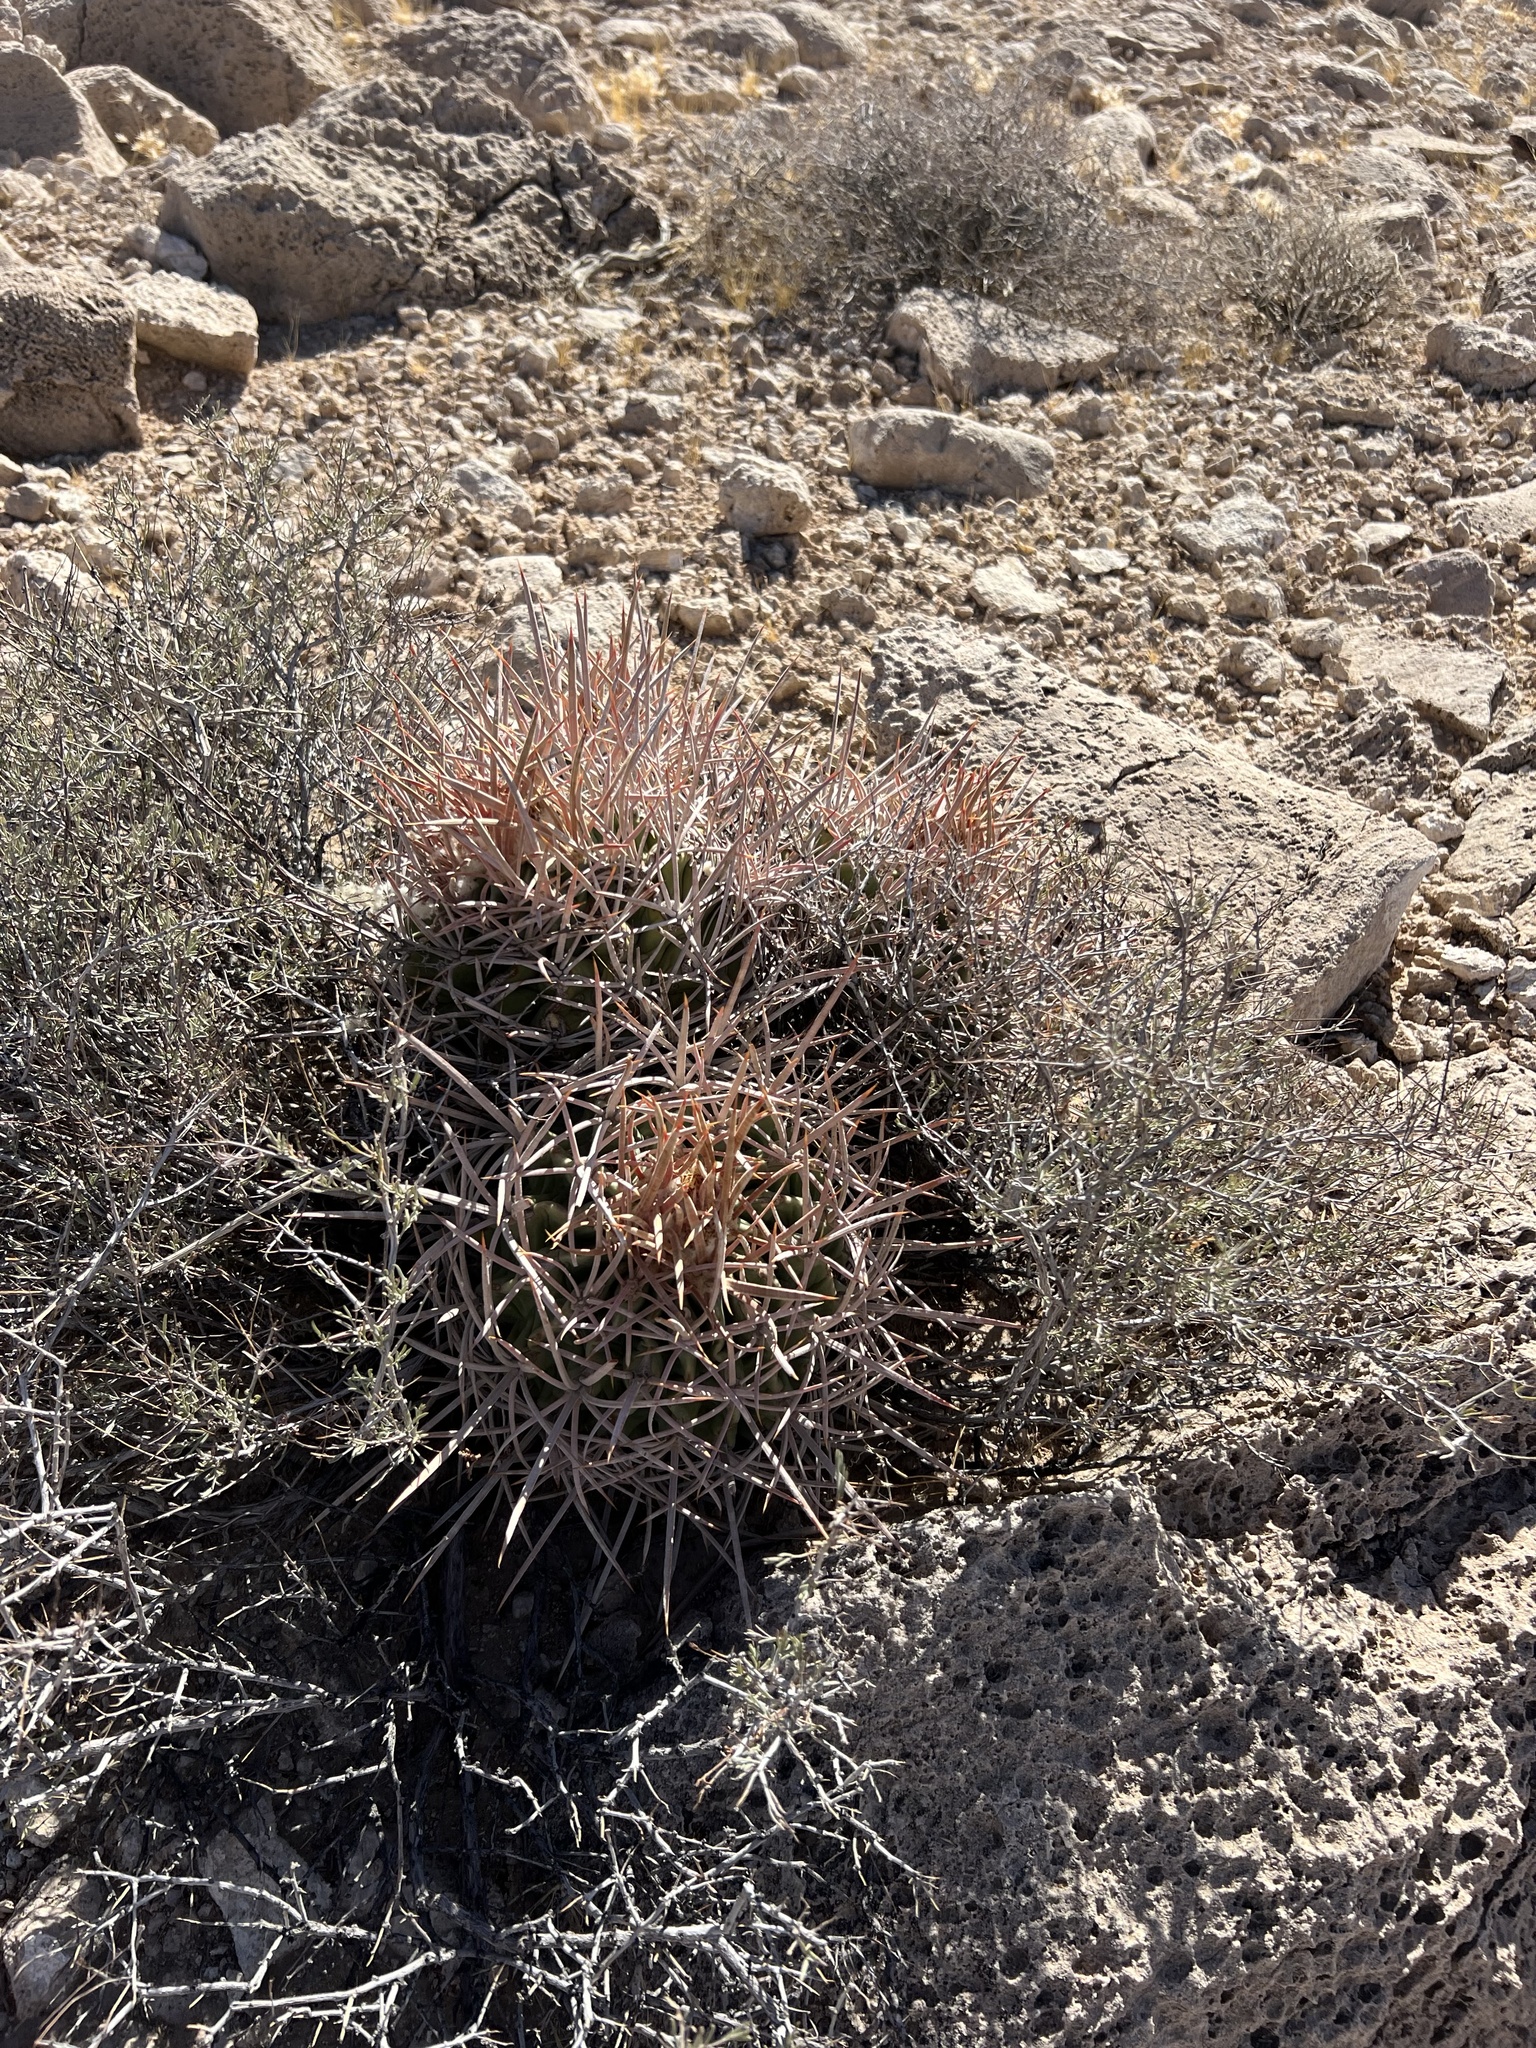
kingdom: Plantae
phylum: Tracheophyta
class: Magnoliopsida
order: Caryophyllales
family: Cactaceae
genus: Echinocactus
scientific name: Echinocactus polycephalus
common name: Cottontop cactus
